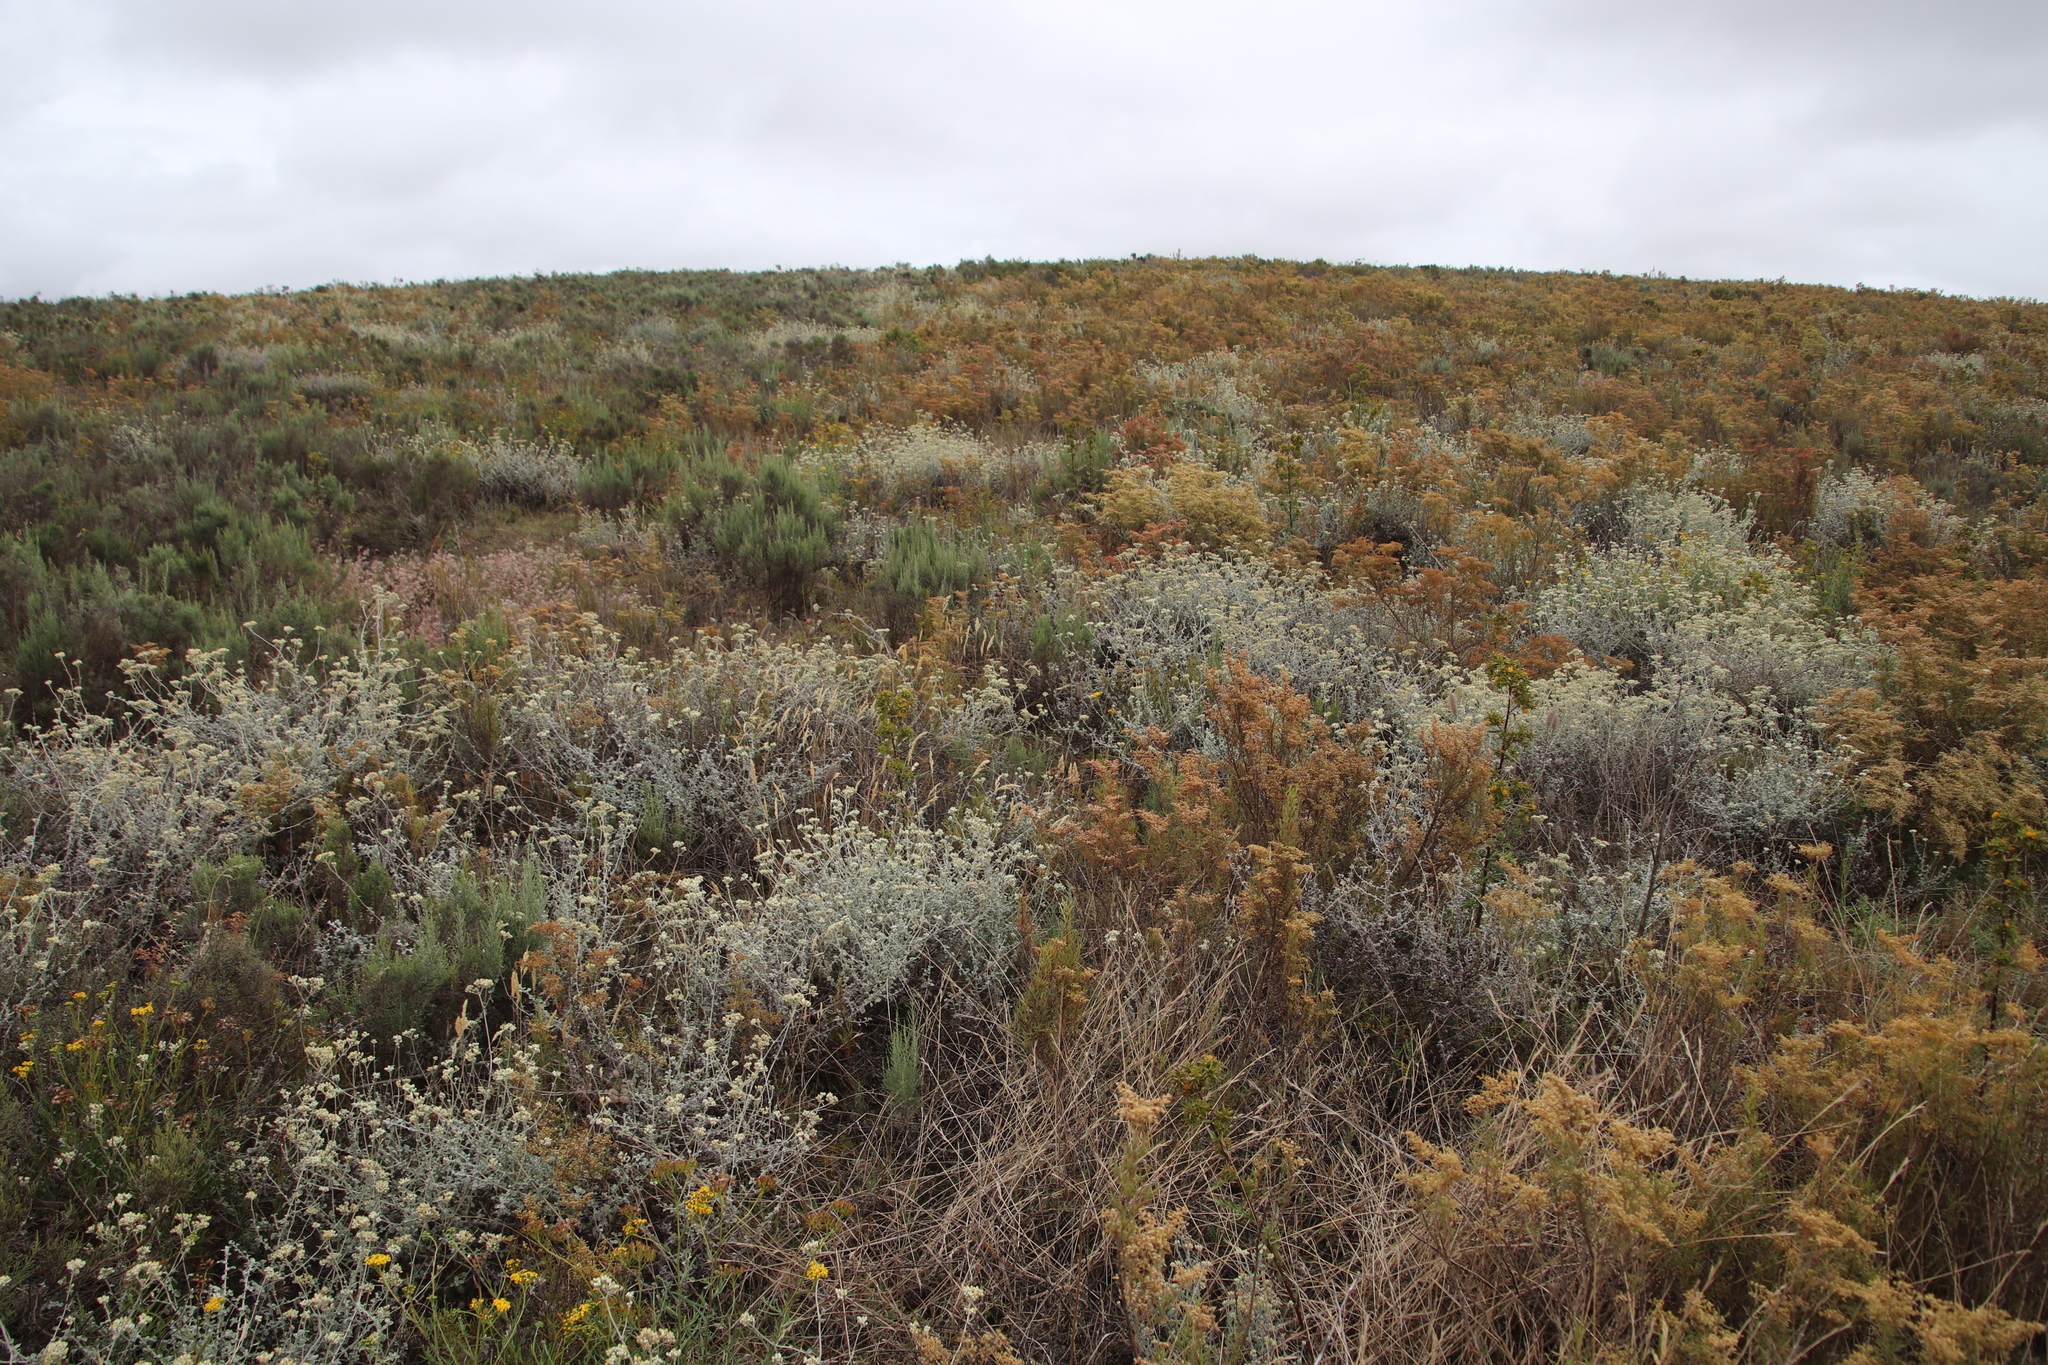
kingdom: Plantae
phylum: Tracheophyta
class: Magnoliopsida
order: Asterales
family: Asteraceae
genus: Helichrysum
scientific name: Helichrysum patulum
